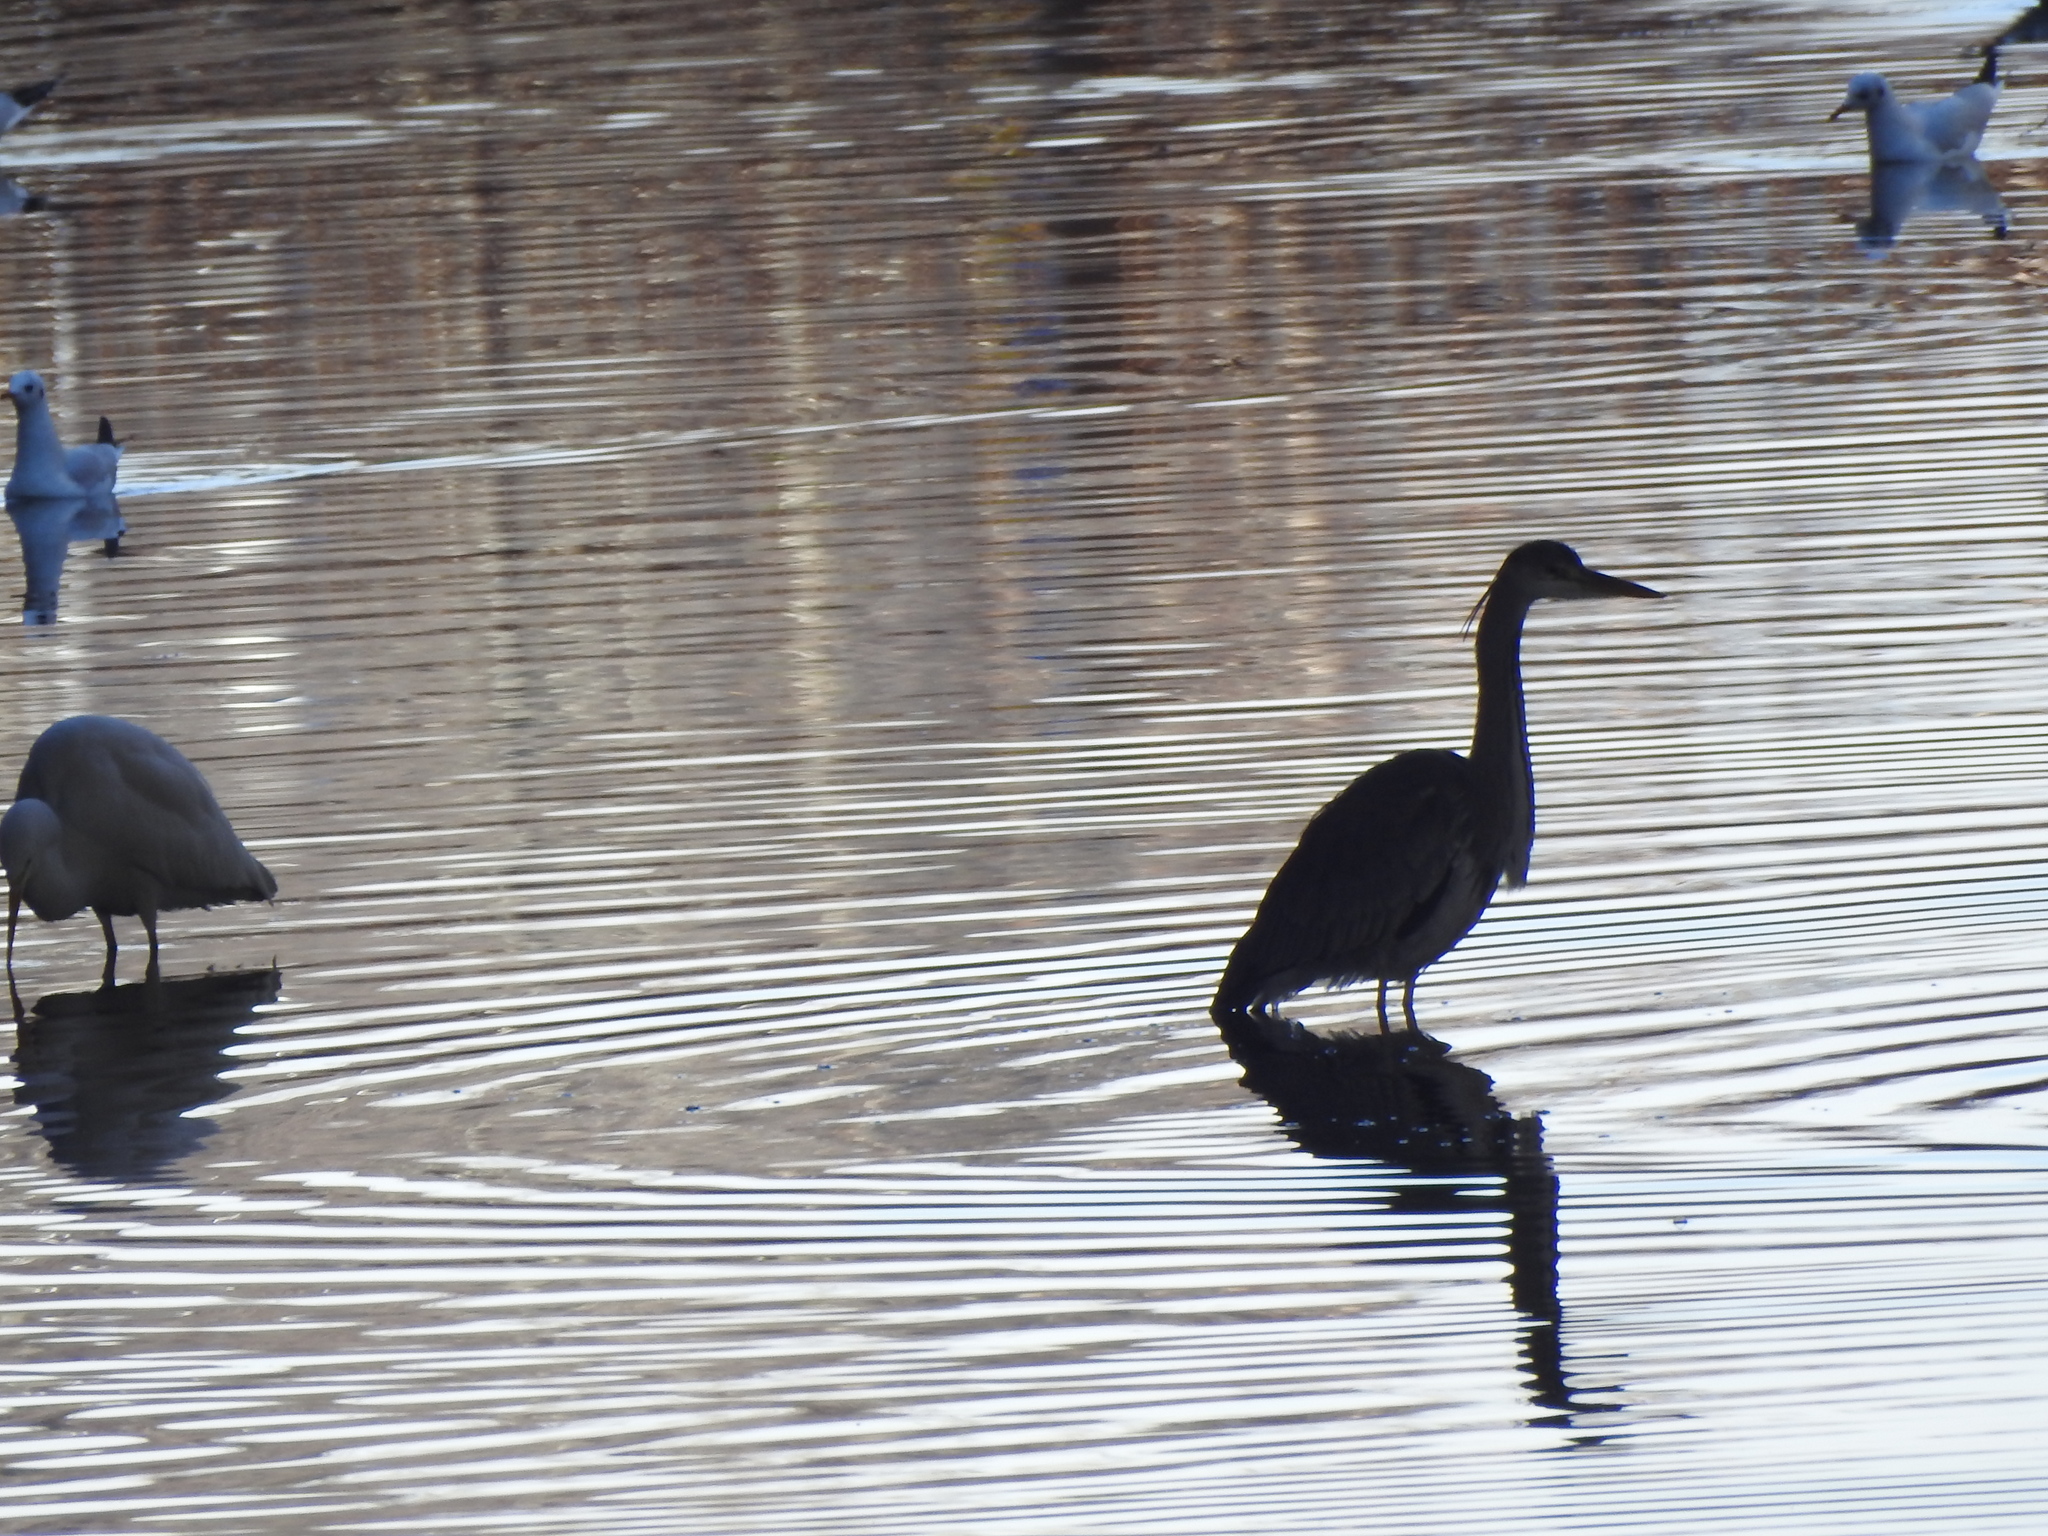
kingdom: Animalia
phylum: Chordata
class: Aves
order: Pelecaniformes
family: Ardeidae
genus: Ardea
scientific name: Ardea cinerea
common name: Grey heron
